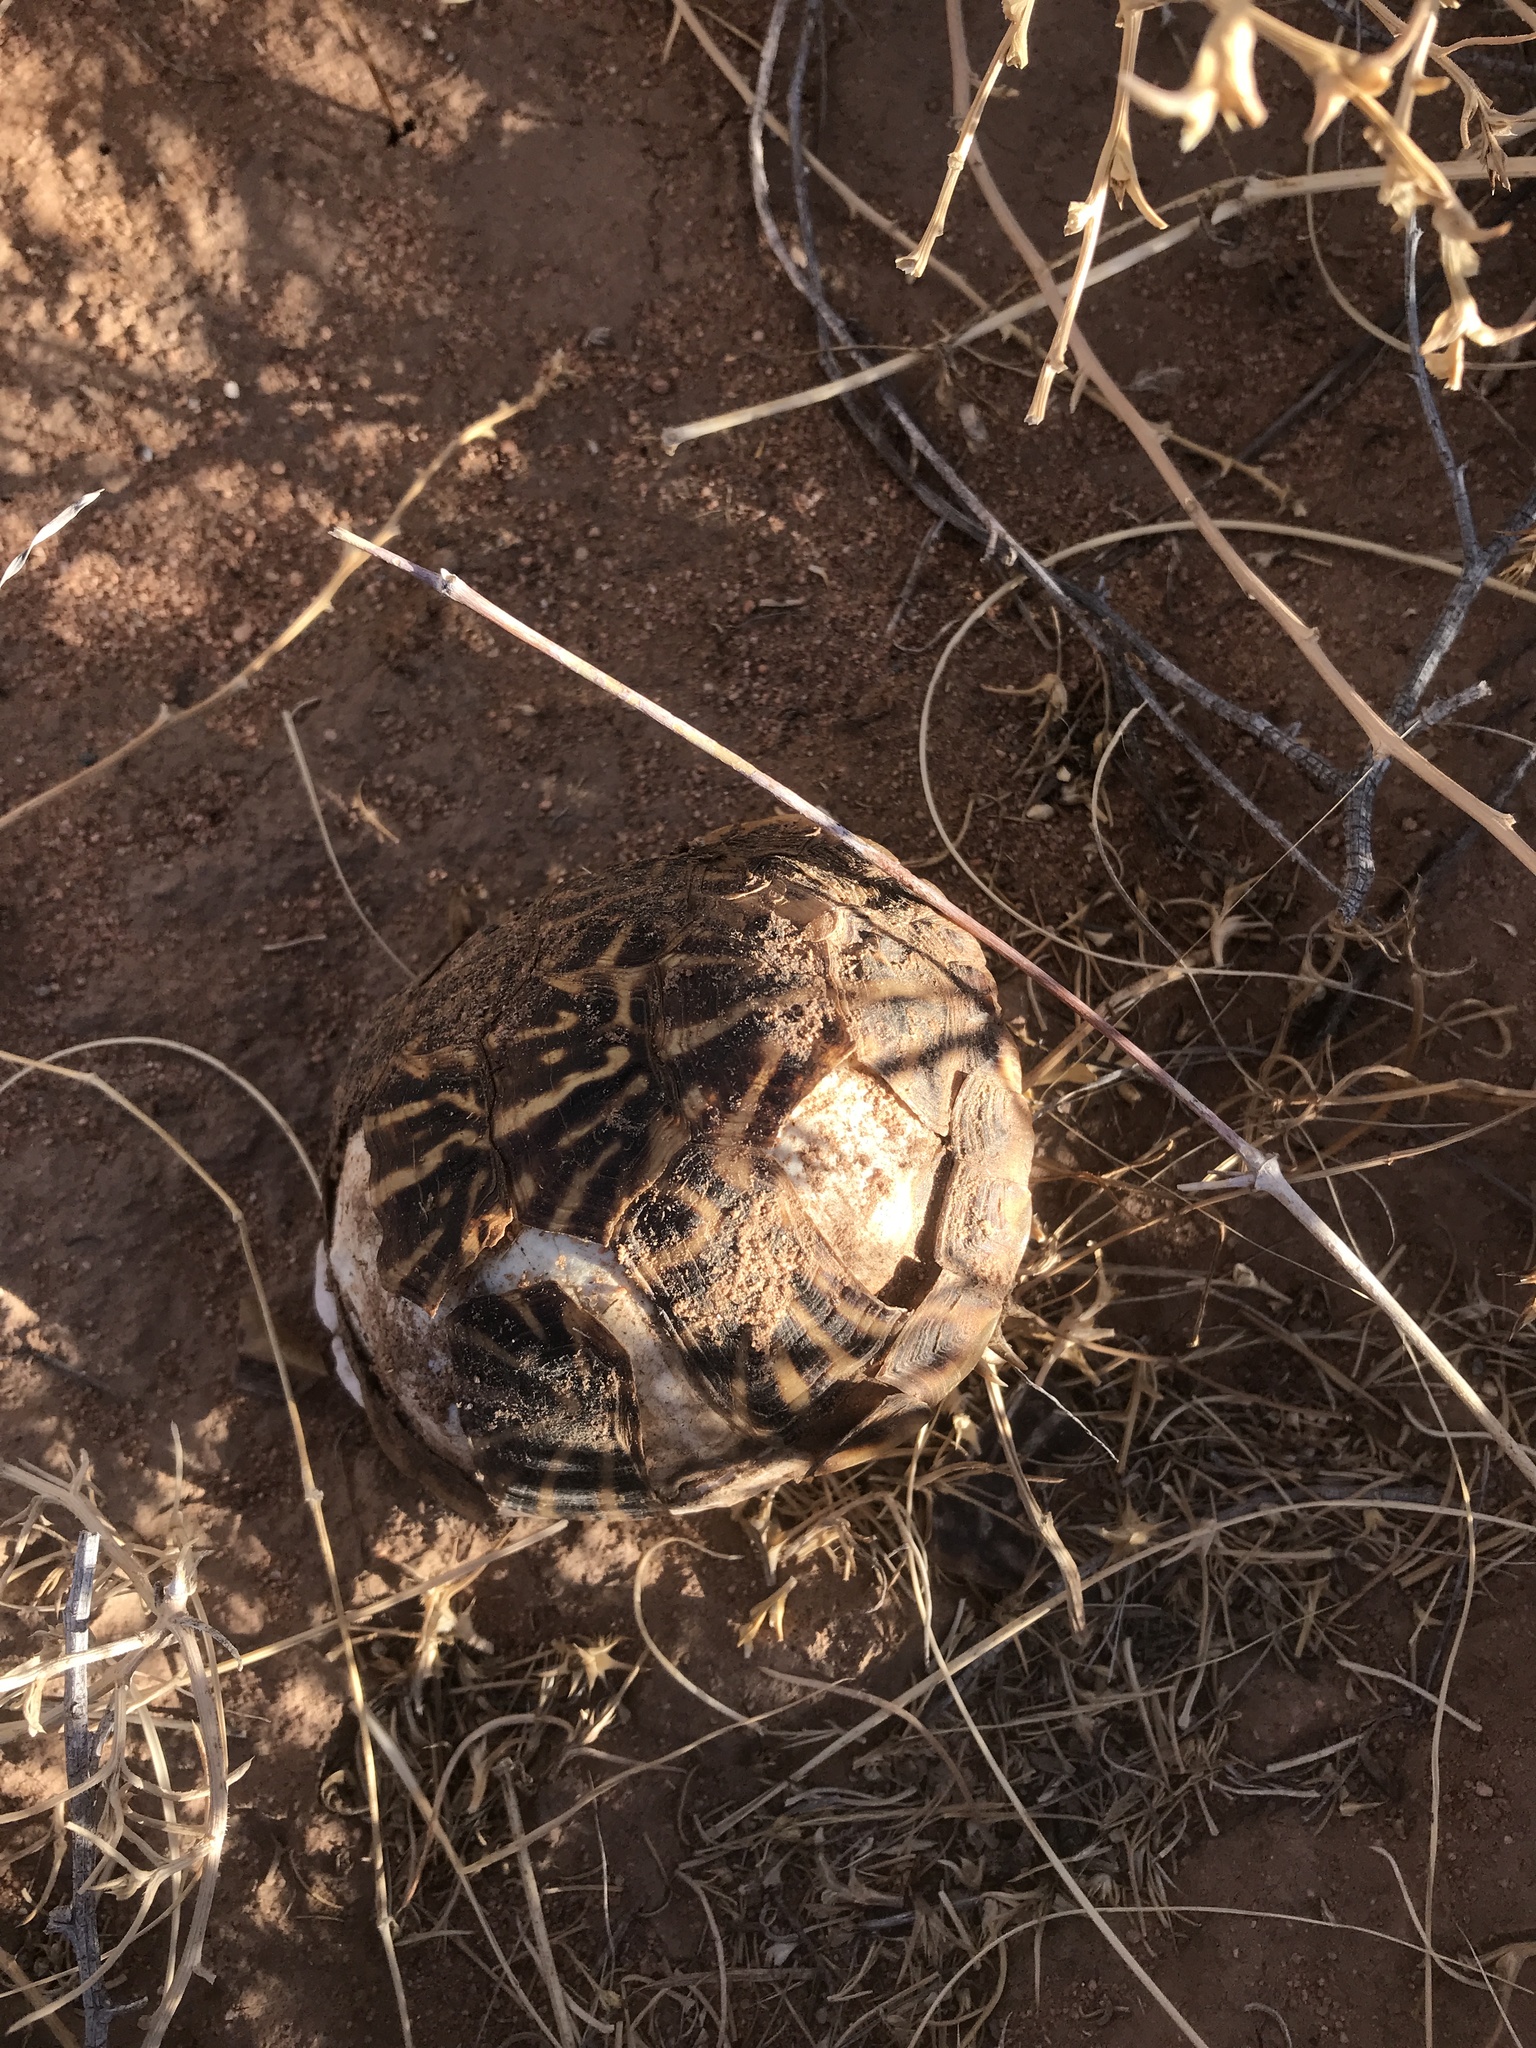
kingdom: Animalia
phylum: Chordata
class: Testudines
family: Emydidae
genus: Terrapene
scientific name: Terrapene ornata
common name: Western box turtle
